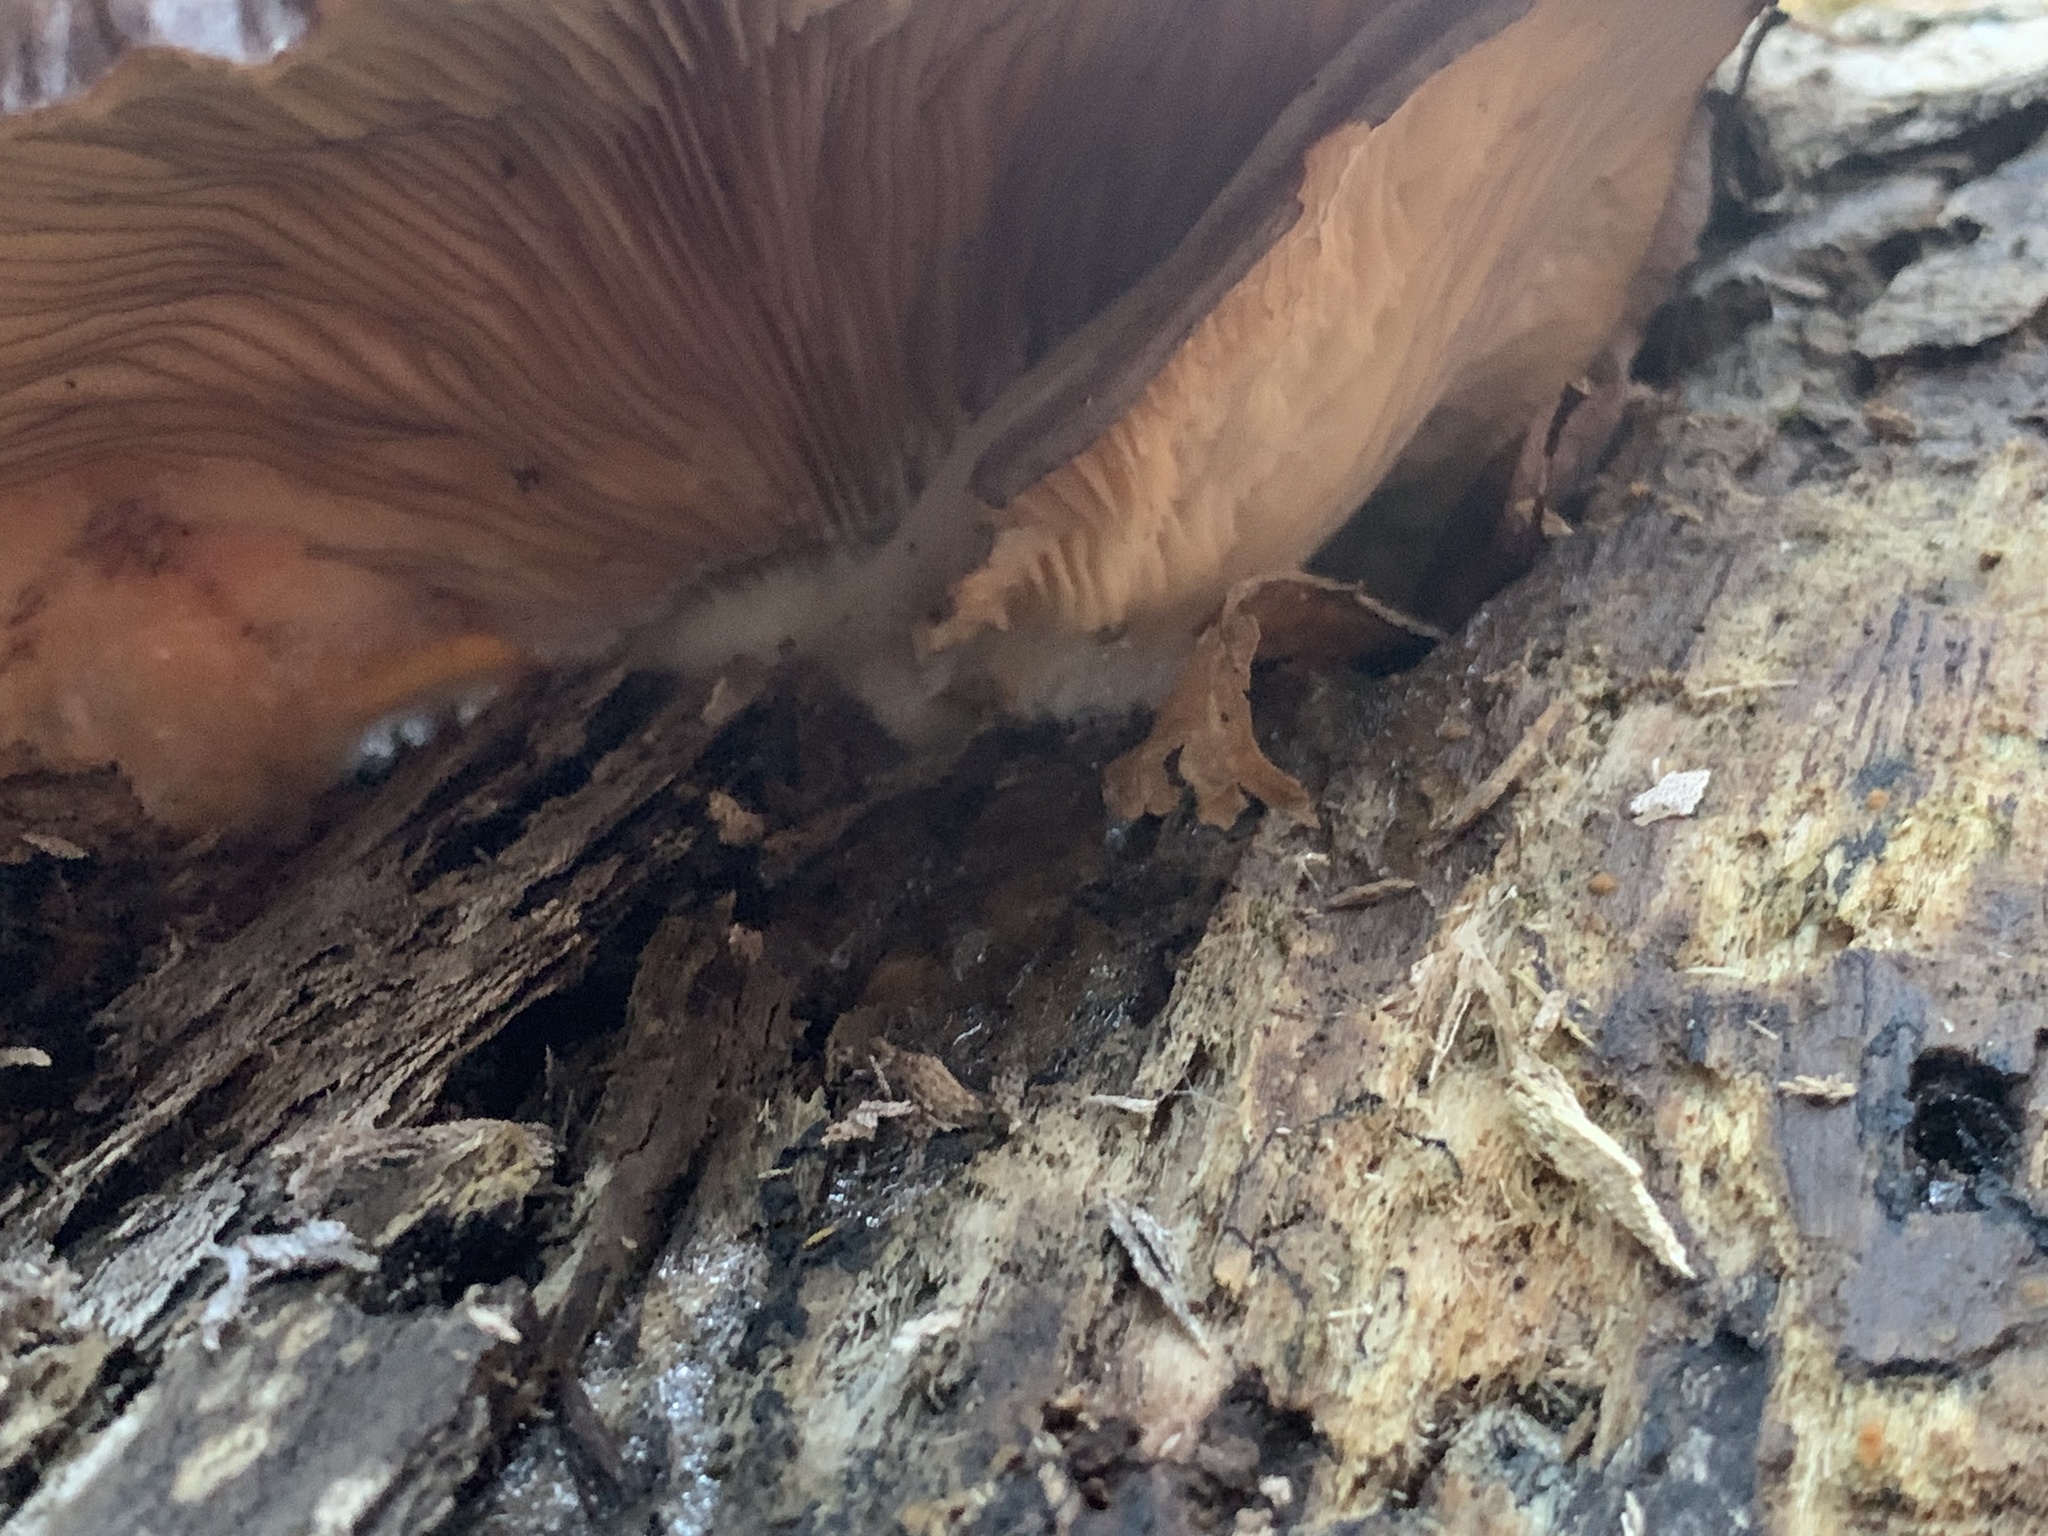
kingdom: Fungi
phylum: Basidiomycota
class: Agaricomycetes
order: Agaricales
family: Sarcomyxaceae
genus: Sarcomyxa
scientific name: Sarcomyxa serotina
